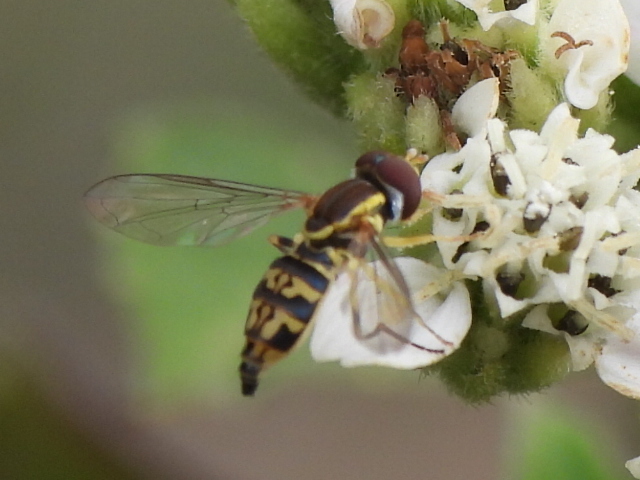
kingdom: Animalia
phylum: Arthropoda
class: Insecta
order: Diptera
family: Syrphidae
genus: Toxomerus
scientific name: Toxomerus geminatus
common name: Eastern calligrapher
